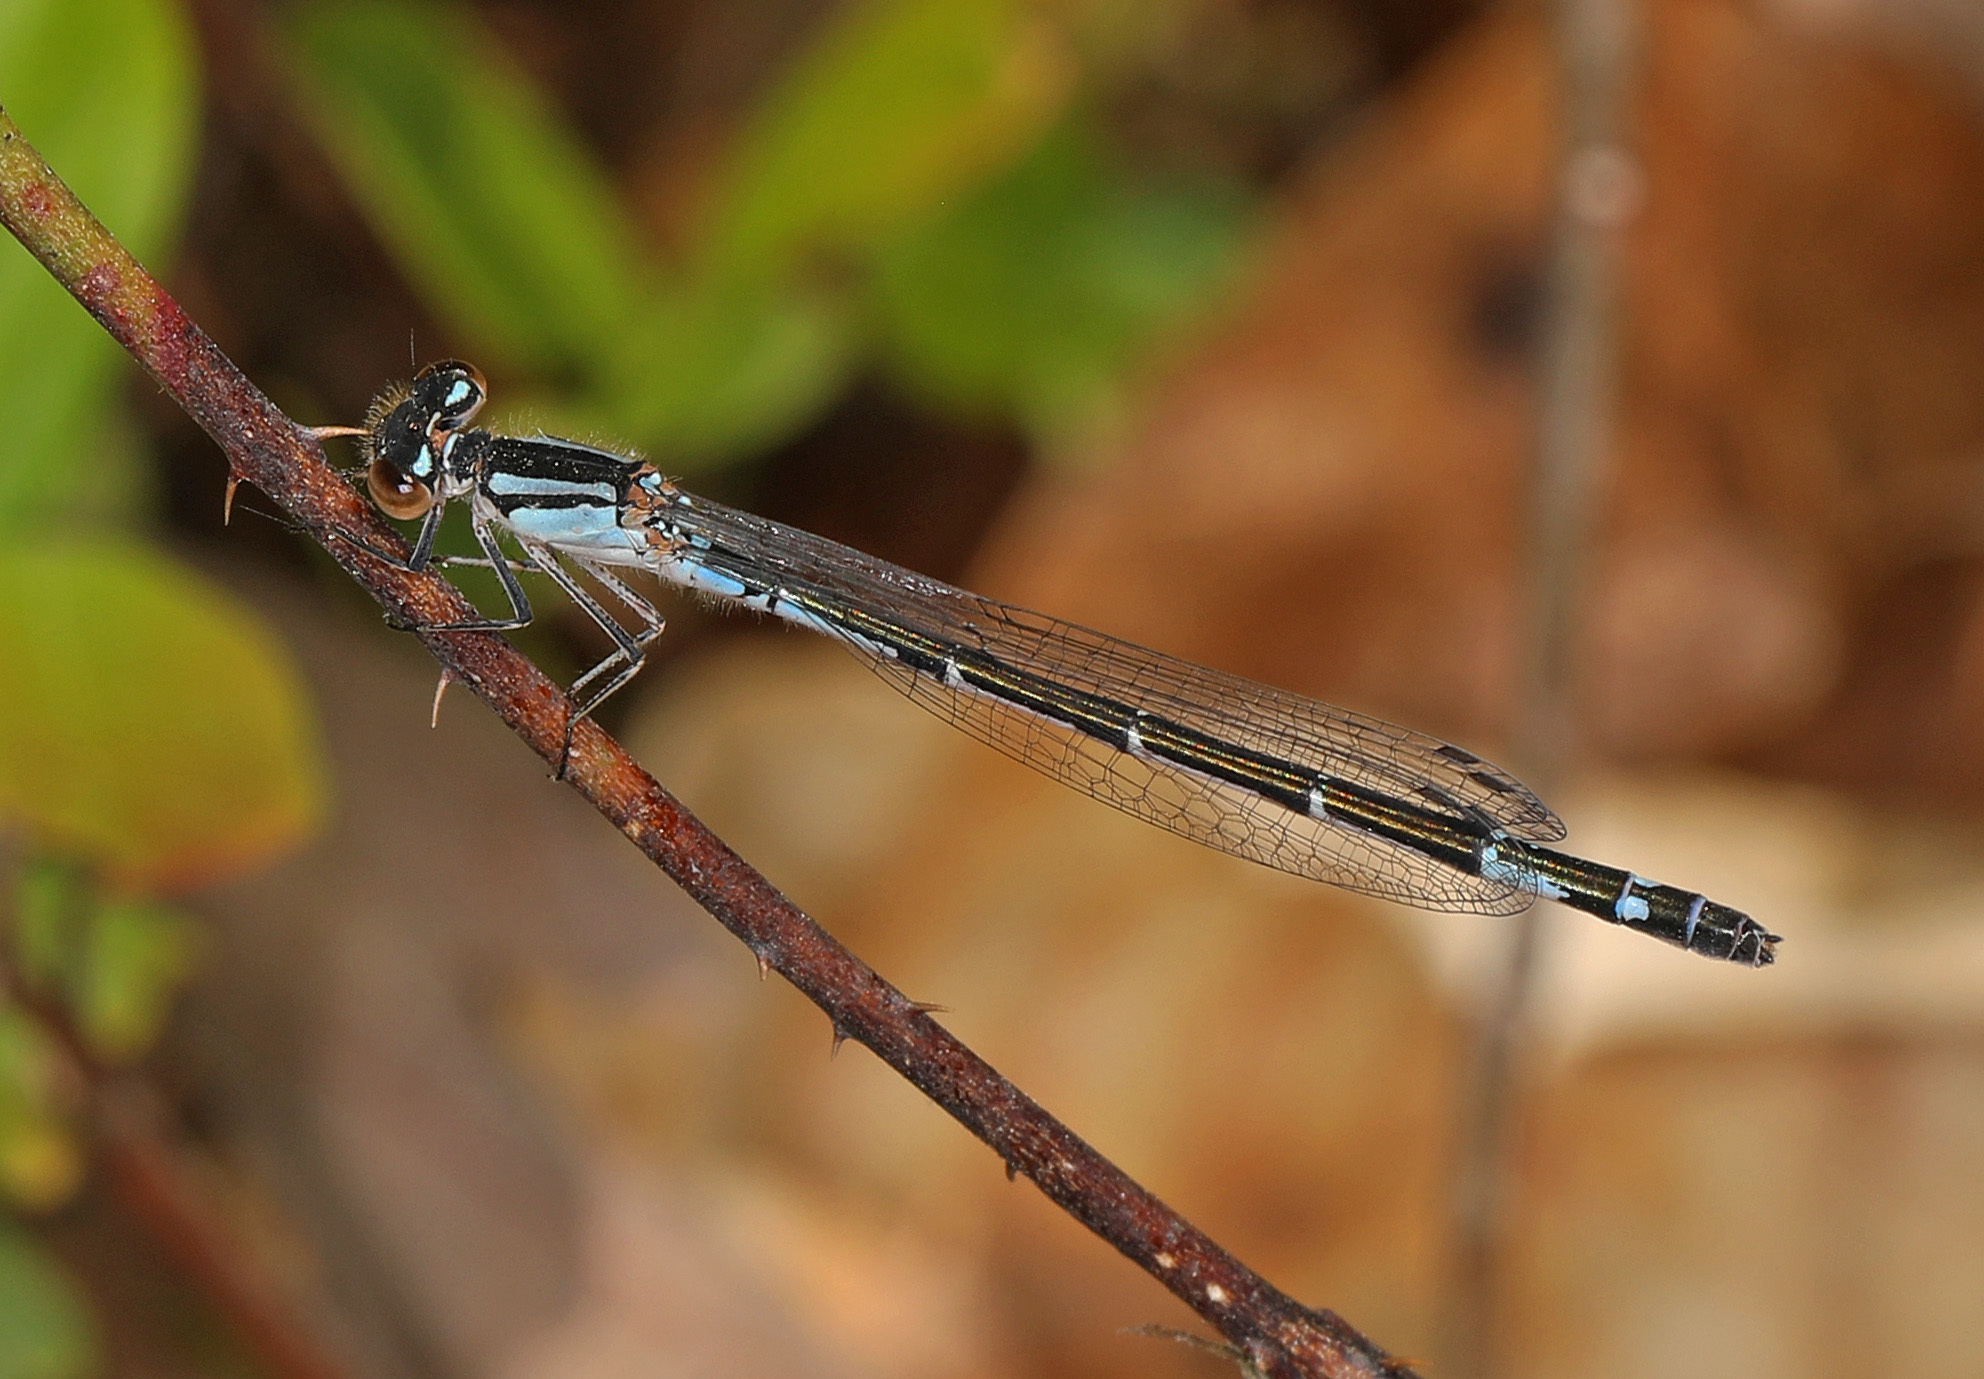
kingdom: Animalia
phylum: Arthropoda
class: Insecta
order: Odonata
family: Coenagrionidae
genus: Enallagma
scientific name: Enallagma aspersum
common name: Azure bluet
